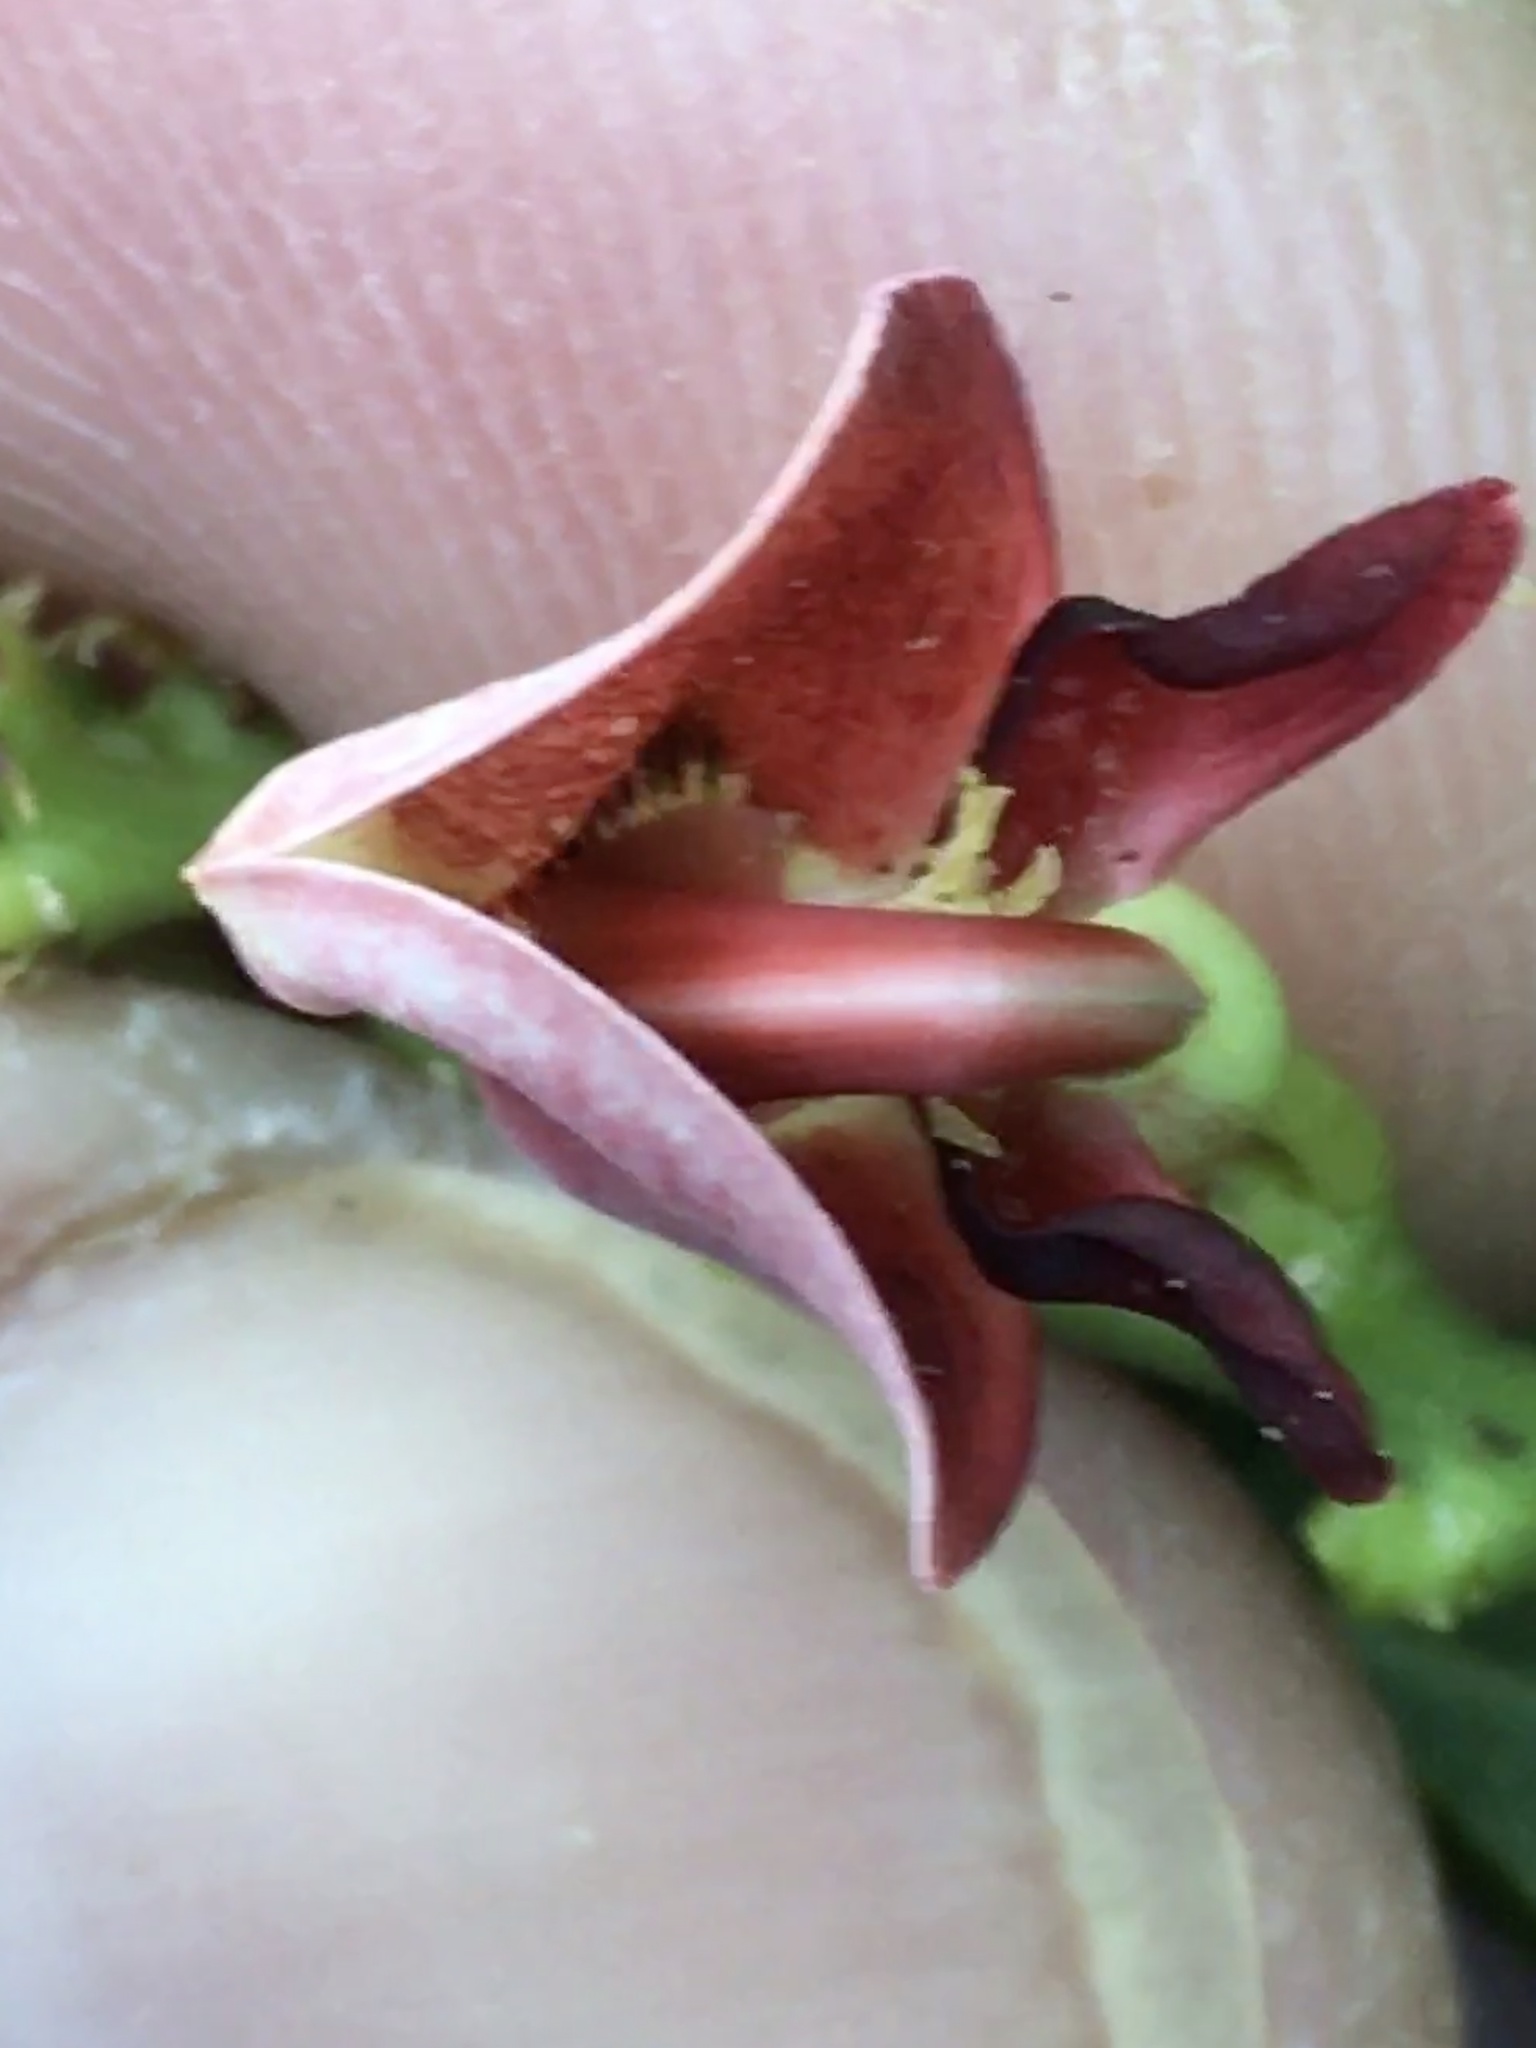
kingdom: Plantae
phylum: Tracheophyta
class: Magnoliopsida
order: Fabales
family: Fabaceae
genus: Apios
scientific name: Apios americana
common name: American potato-bean
